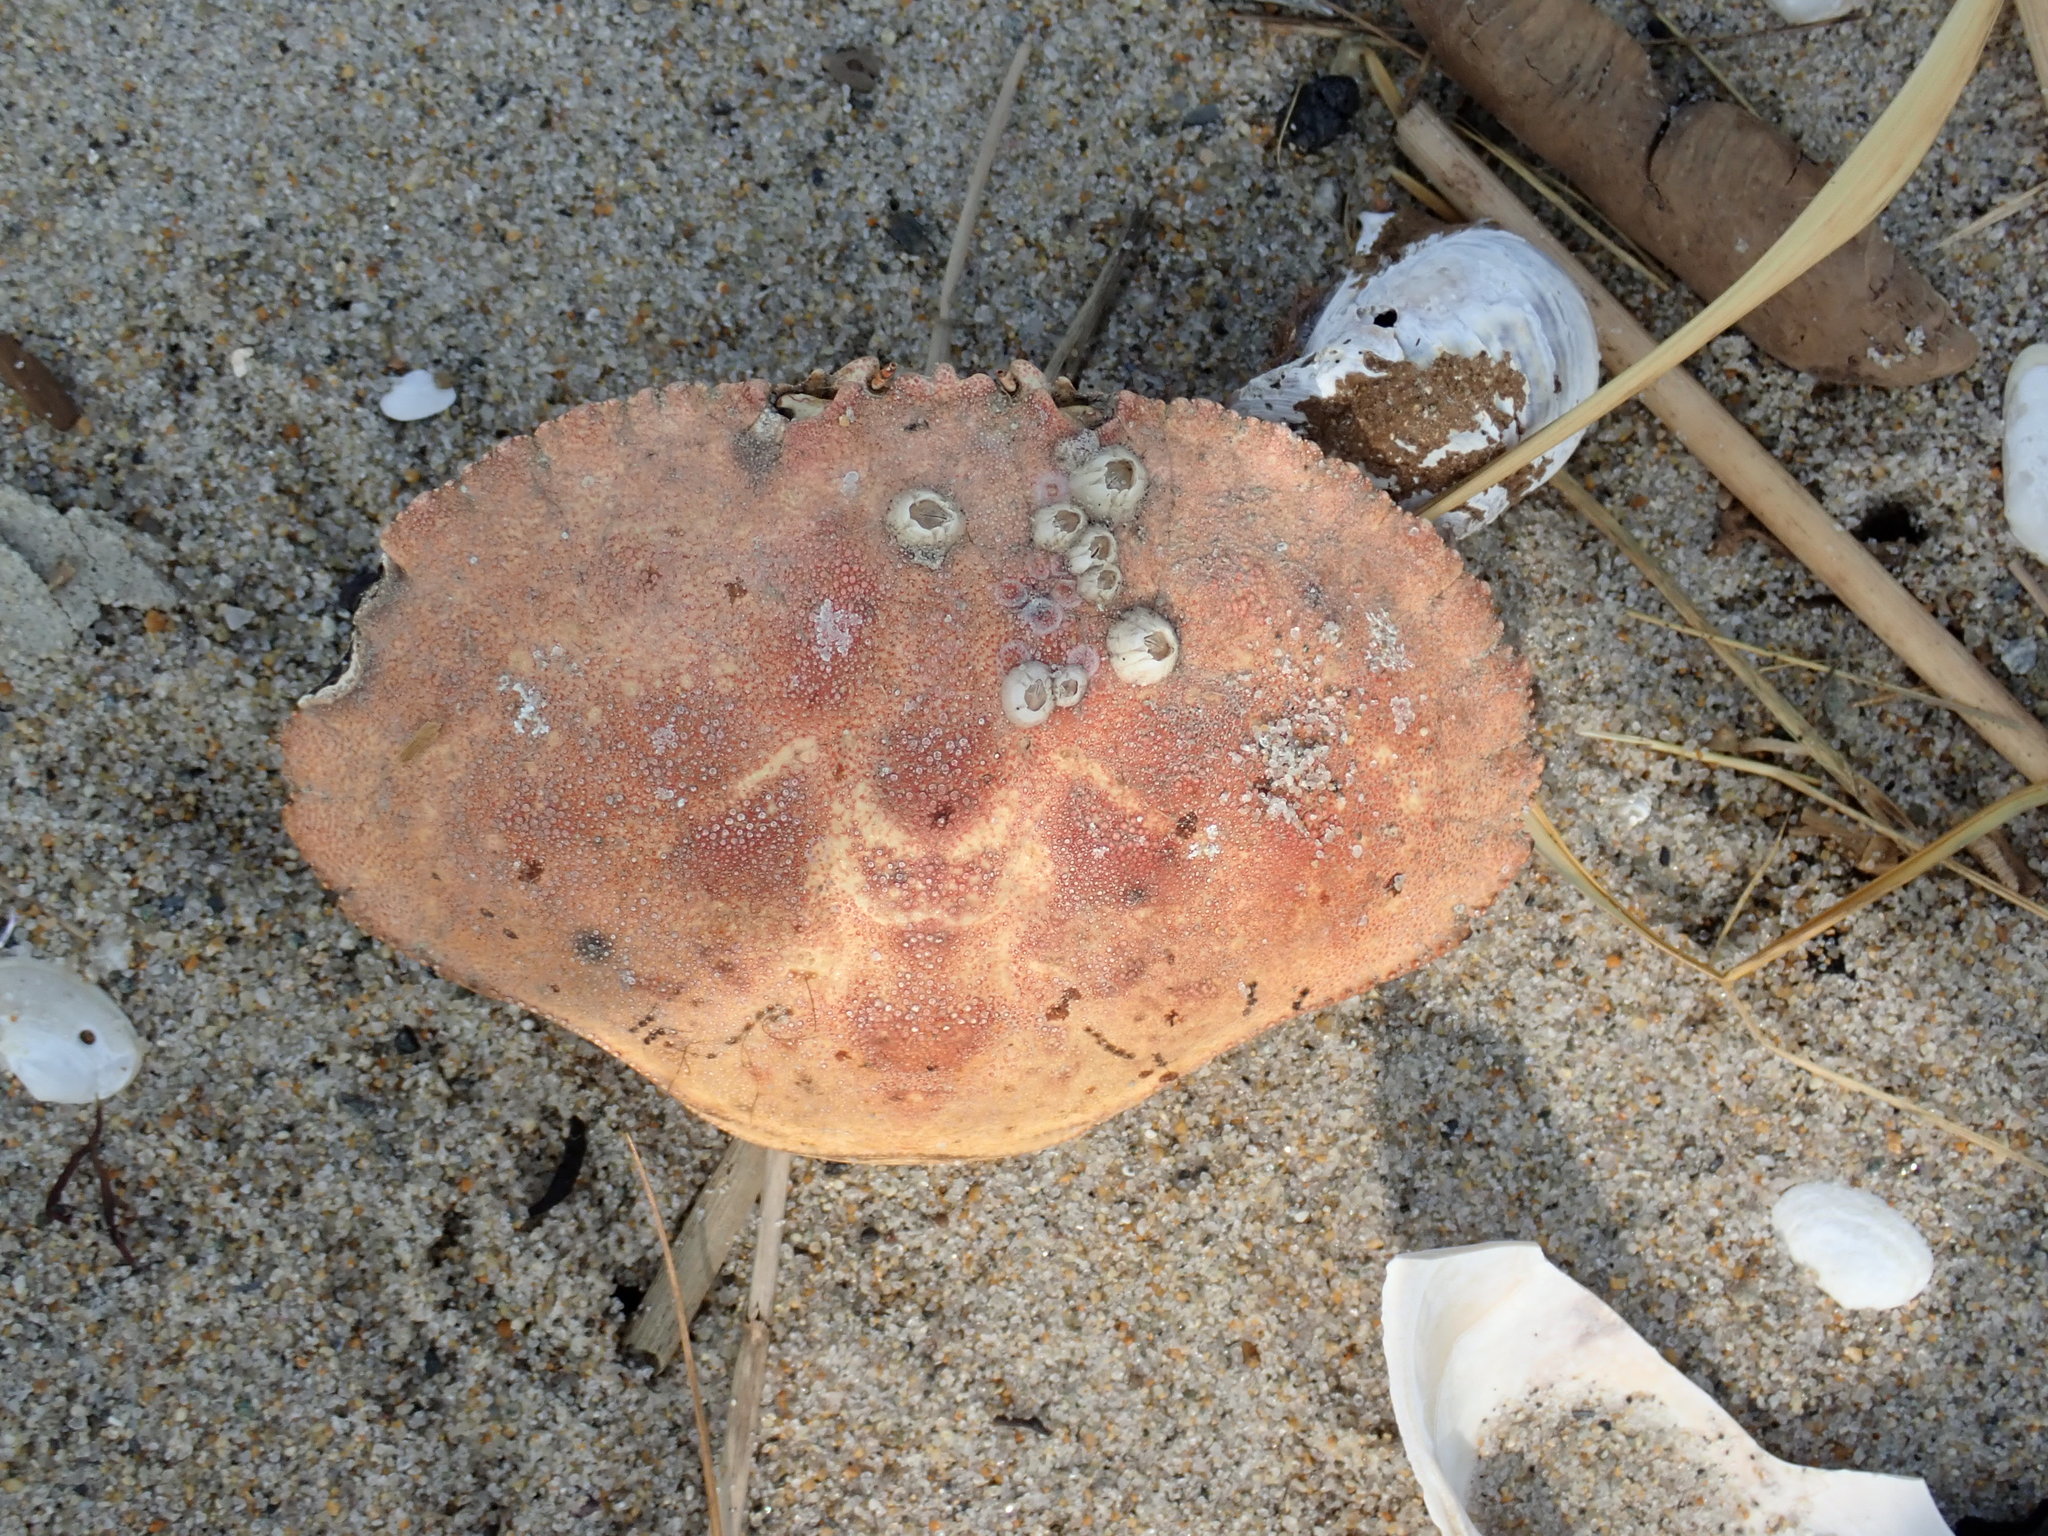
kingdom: Animalia
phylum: Arthropoda
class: Malacostraca
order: Decapoda
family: Cancridae
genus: Cancer
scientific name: Cancer borealis
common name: Jonah crab
